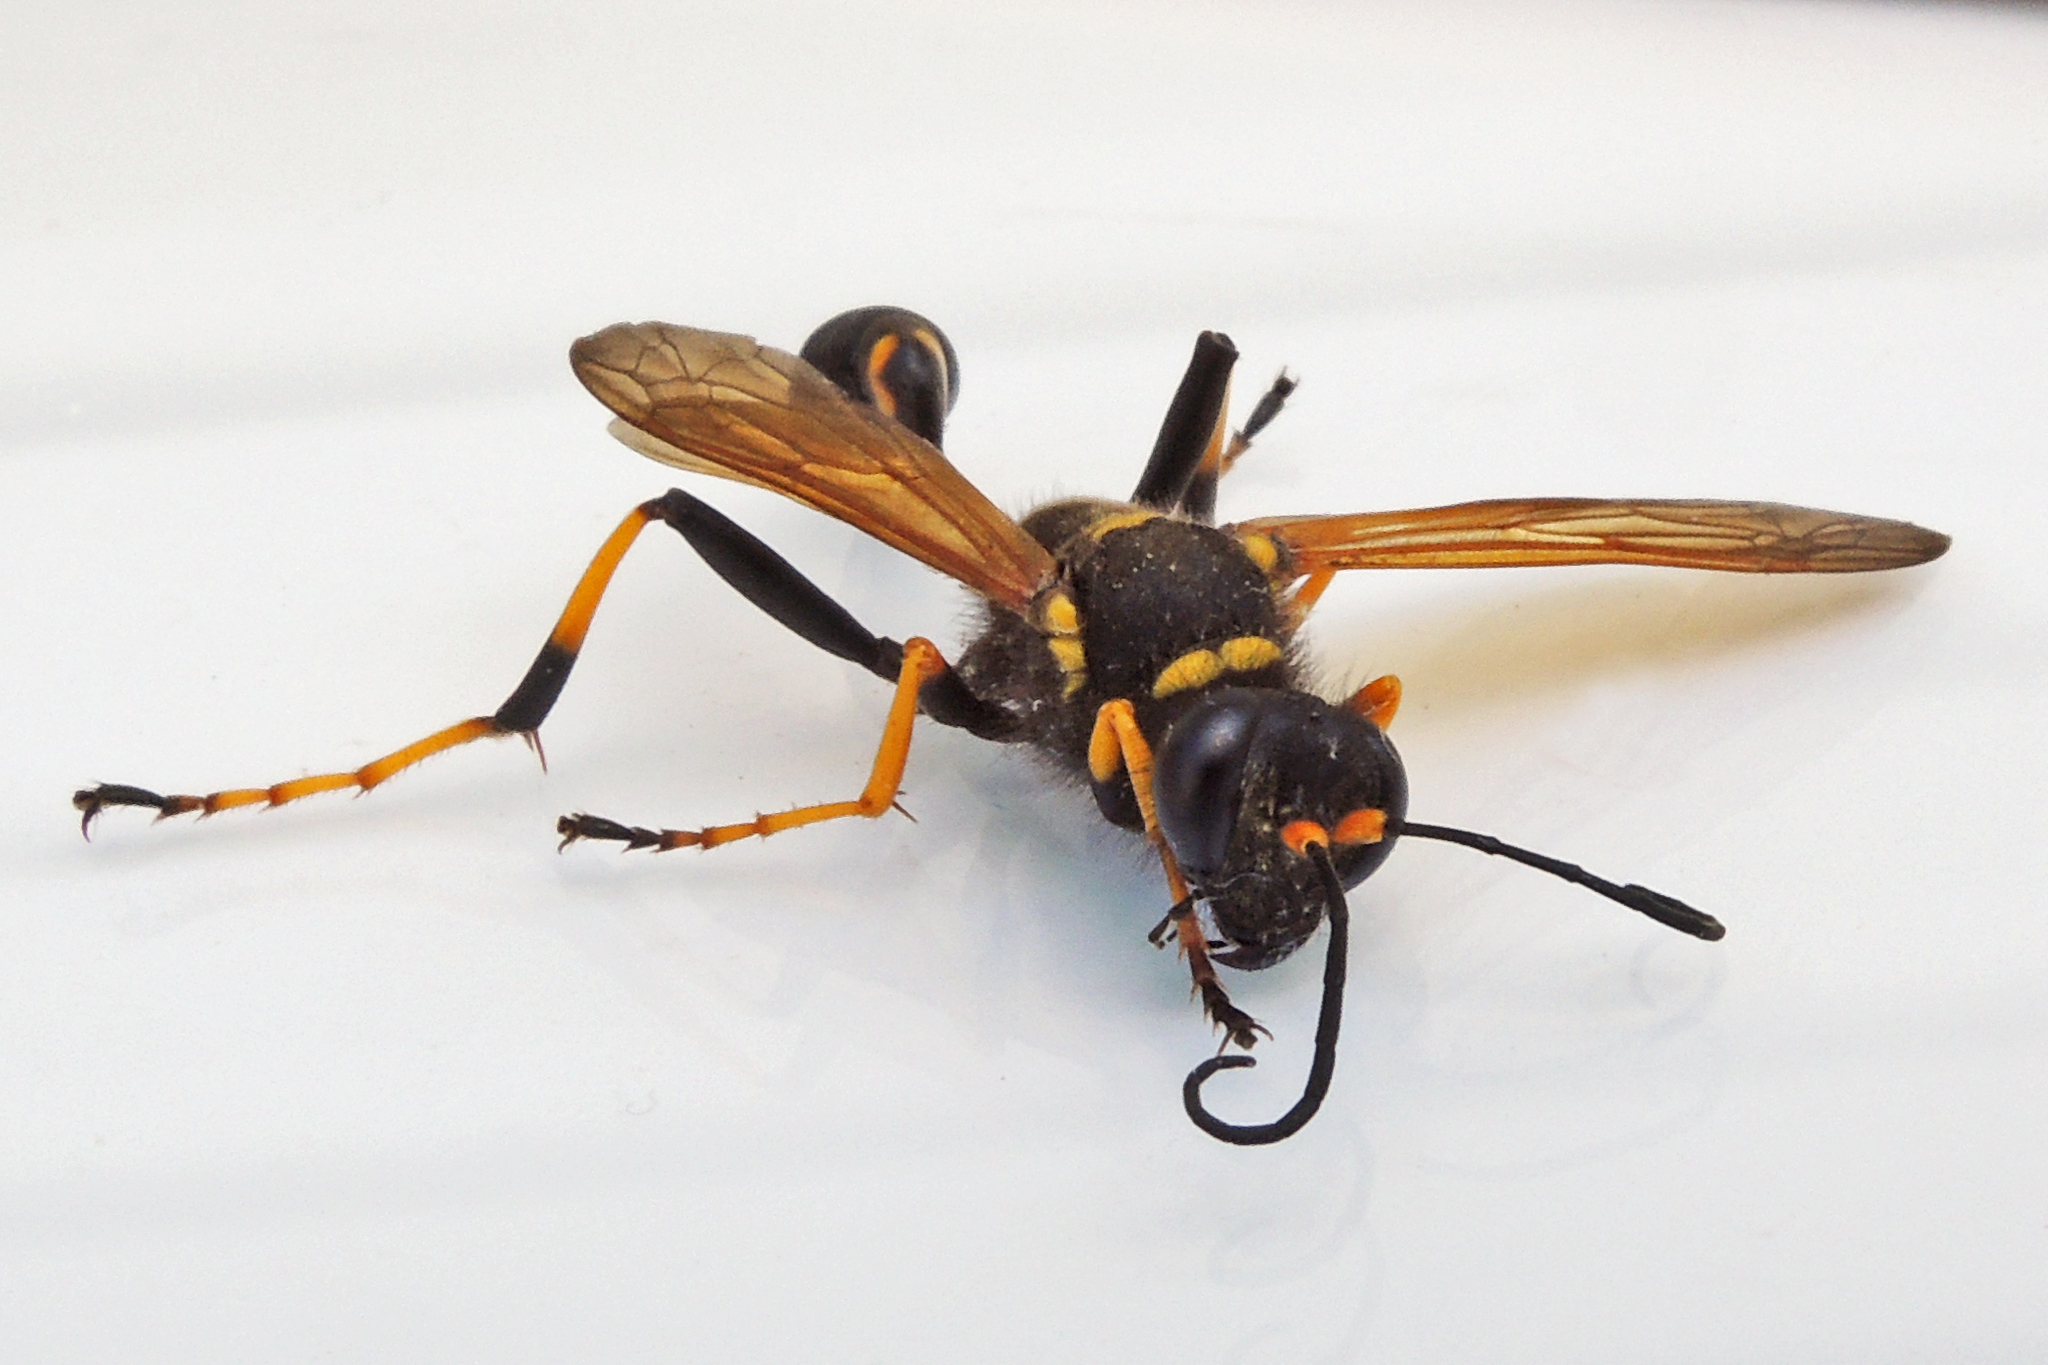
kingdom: Animalia
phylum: Arthropoda
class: Insecta
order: Hymenoptera
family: Sphecidae
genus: Sceliphron
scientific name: Sceliphron caementarium
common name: Mud dauber
